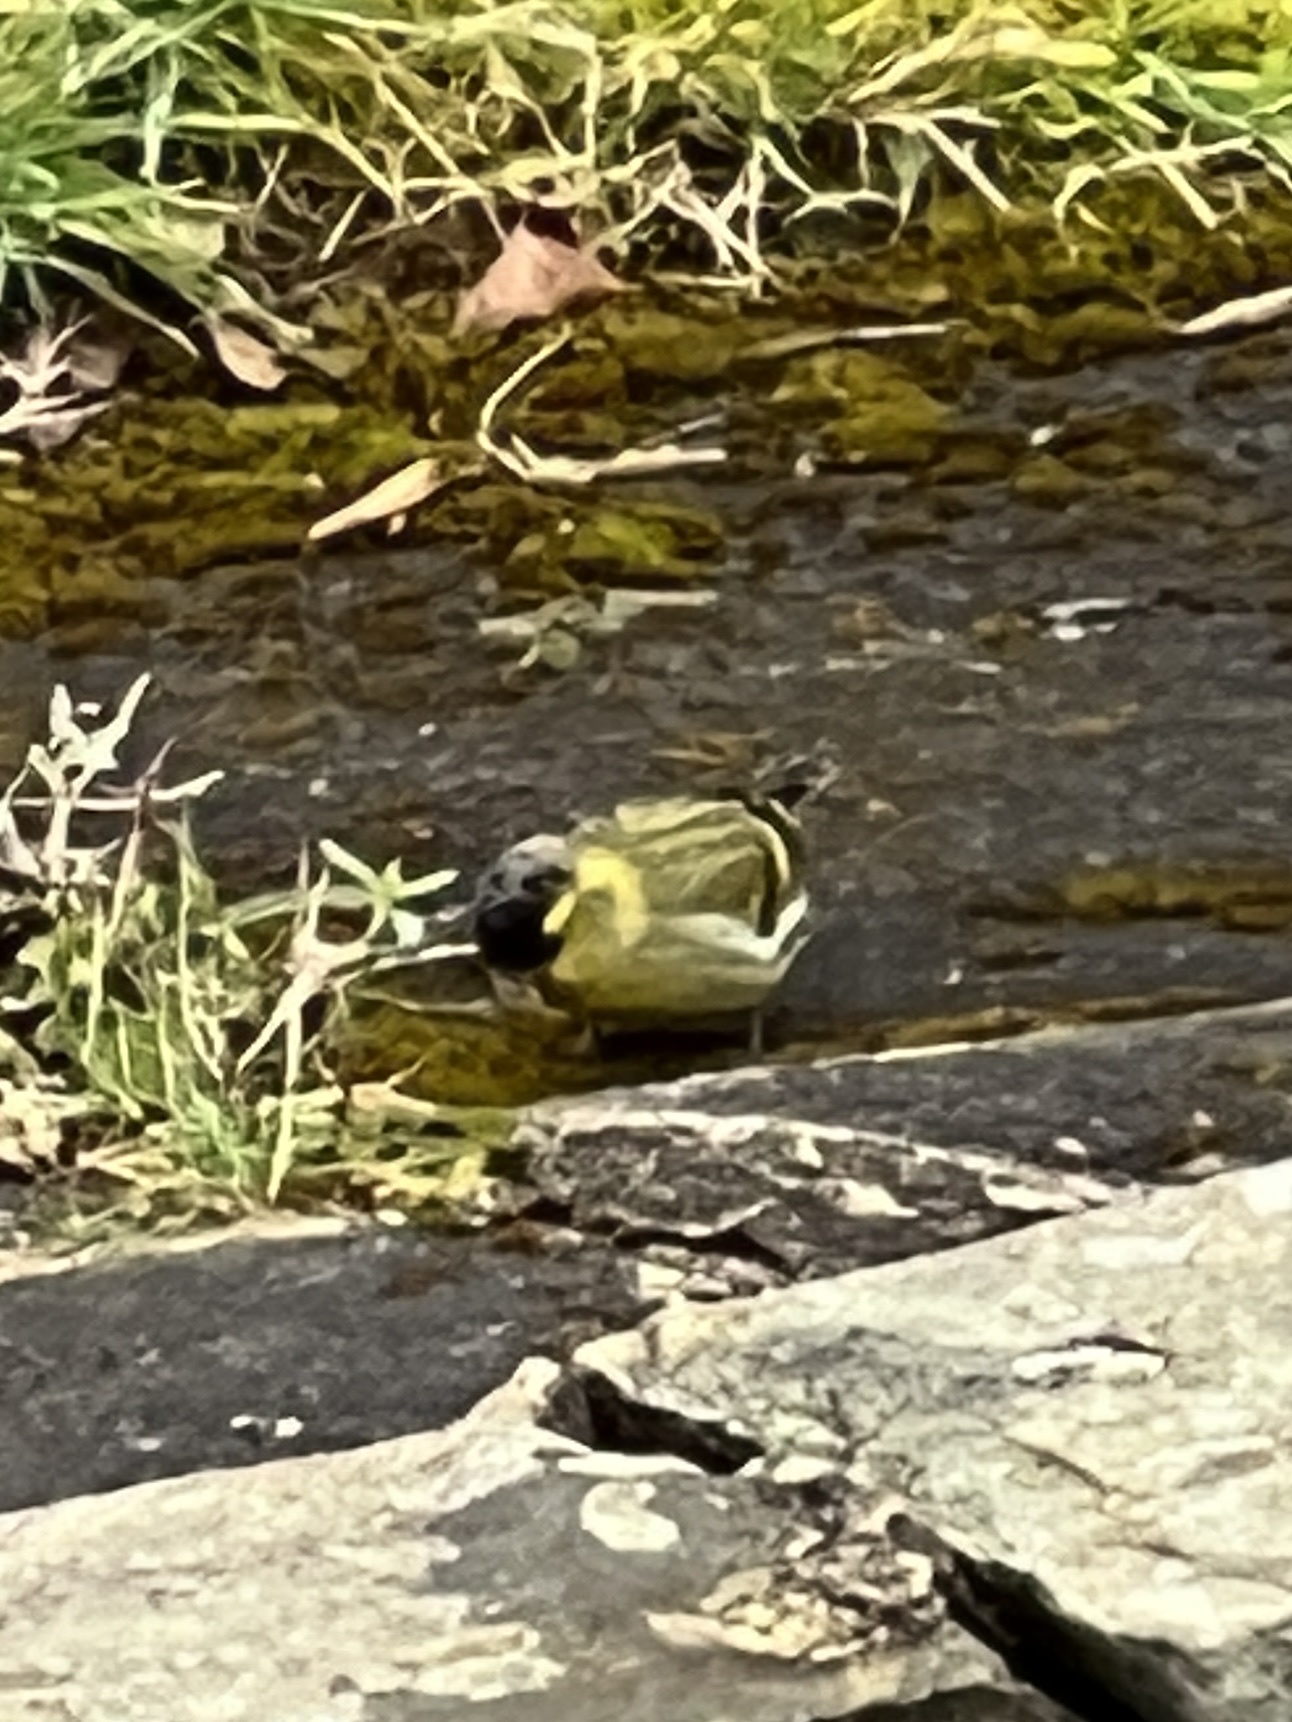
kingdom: Animalia
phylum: Chordata
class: Aves
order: Passeriformes
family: Fringillidae
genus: Spinus
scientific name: Spinus spinus
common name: Eurasian siskin
